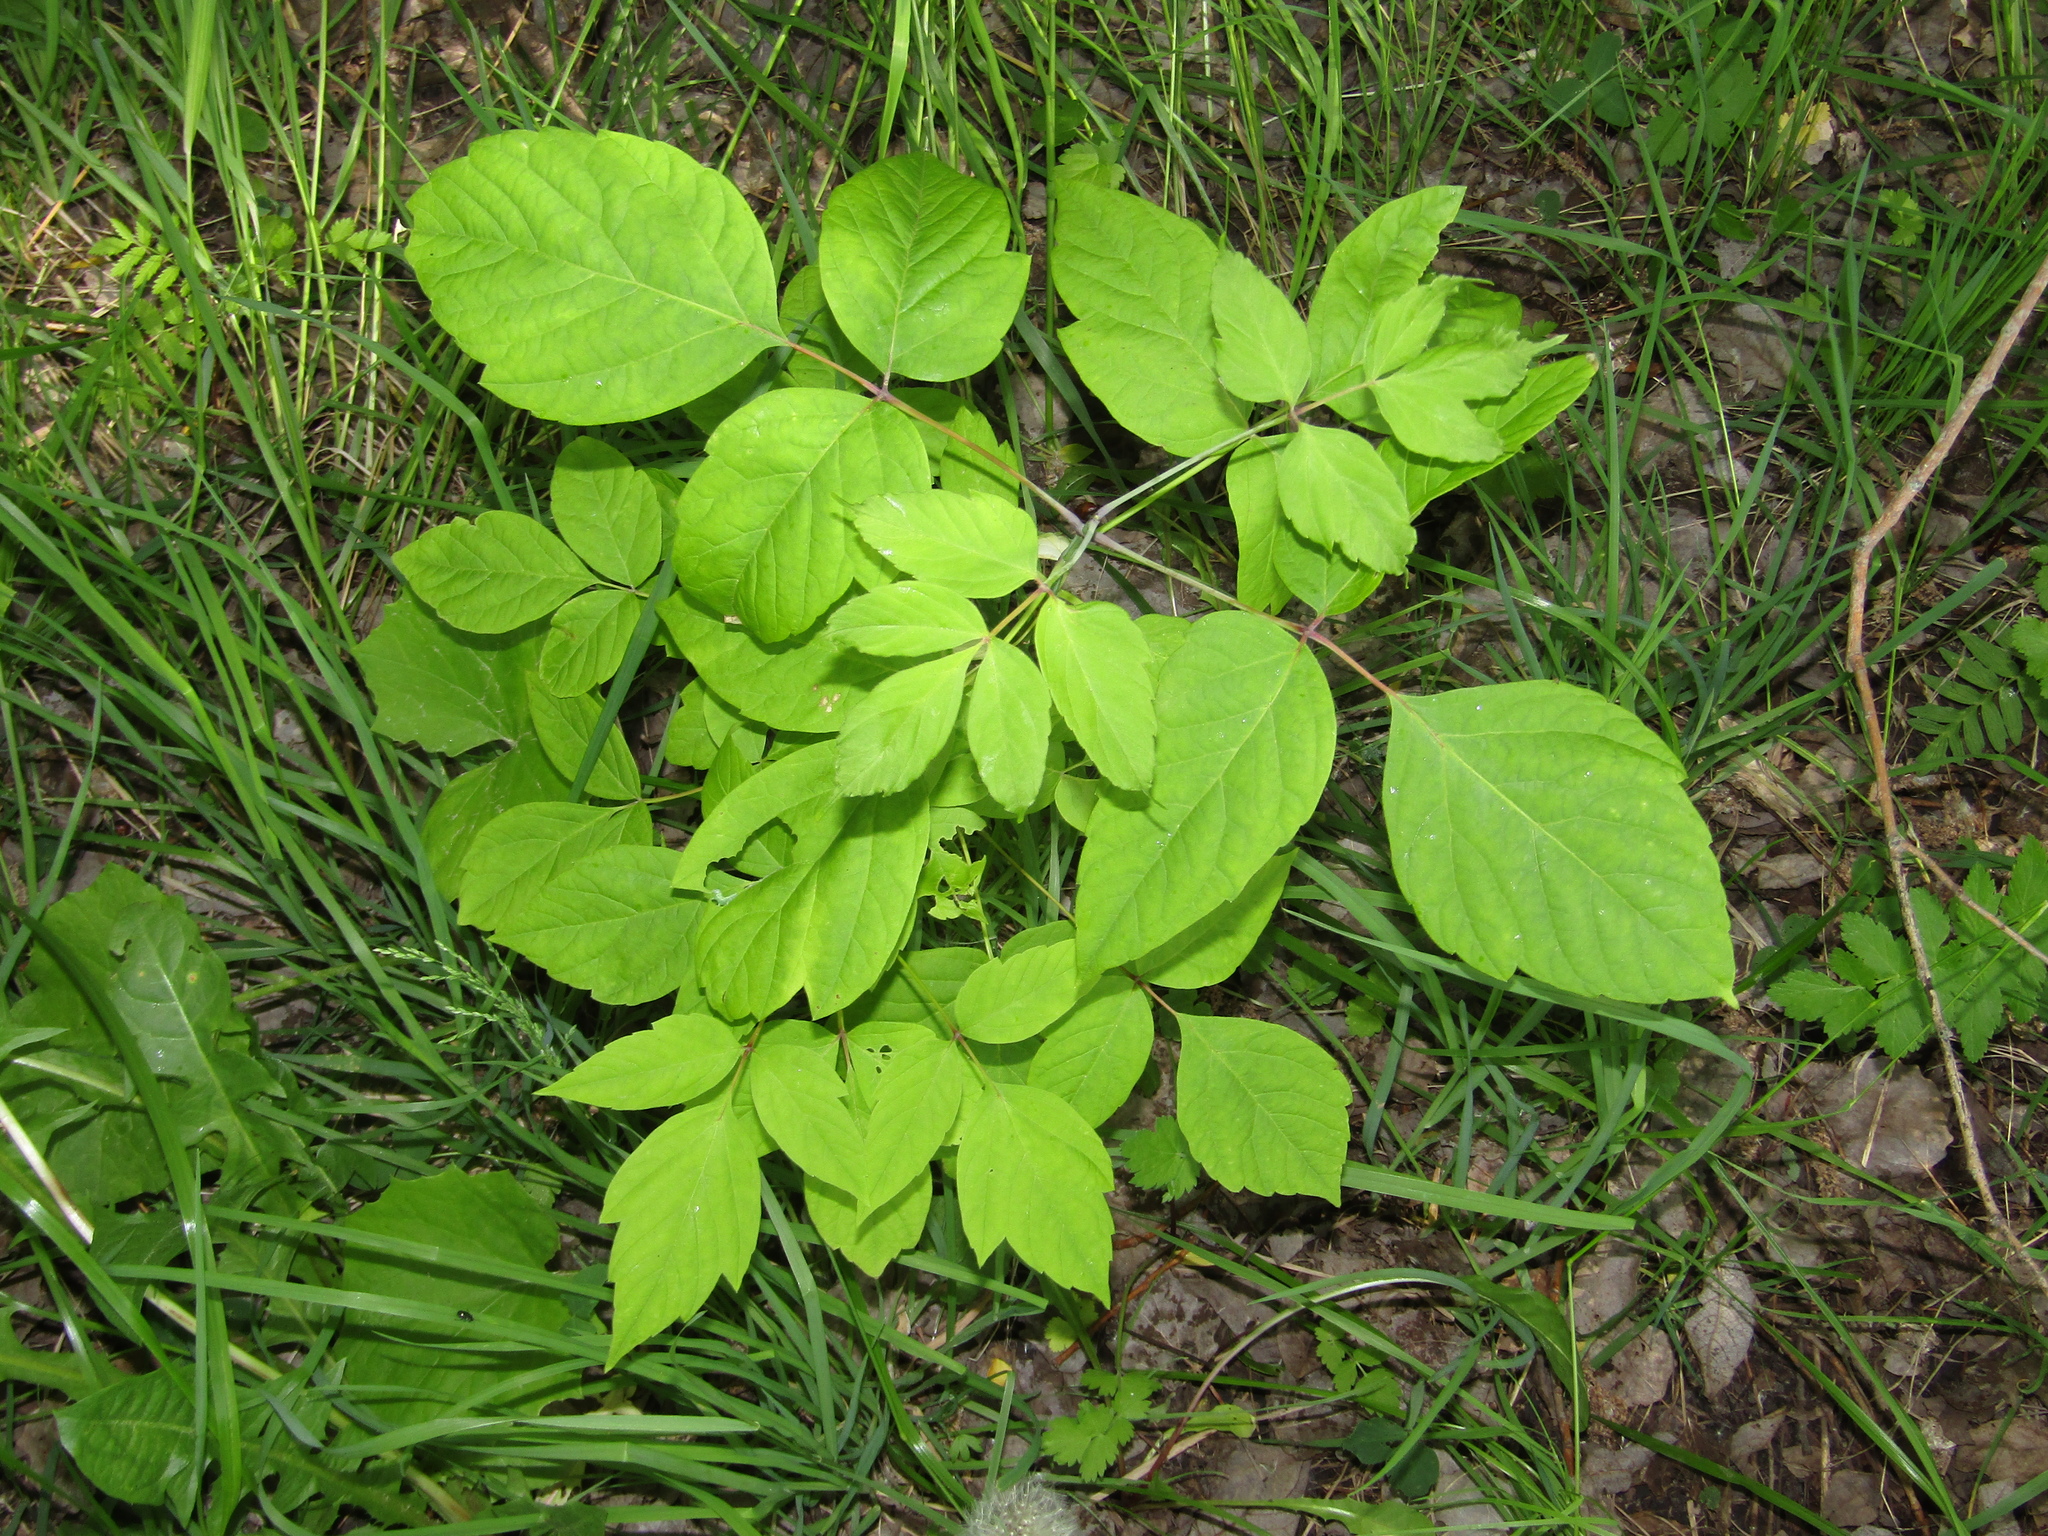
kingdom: Plantae
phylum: Tracheophyta
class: Magnoliopsida
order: Sapindales
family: Sapindaceae
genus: Acer
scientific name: Acer negundo
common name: Ashleaf maple
